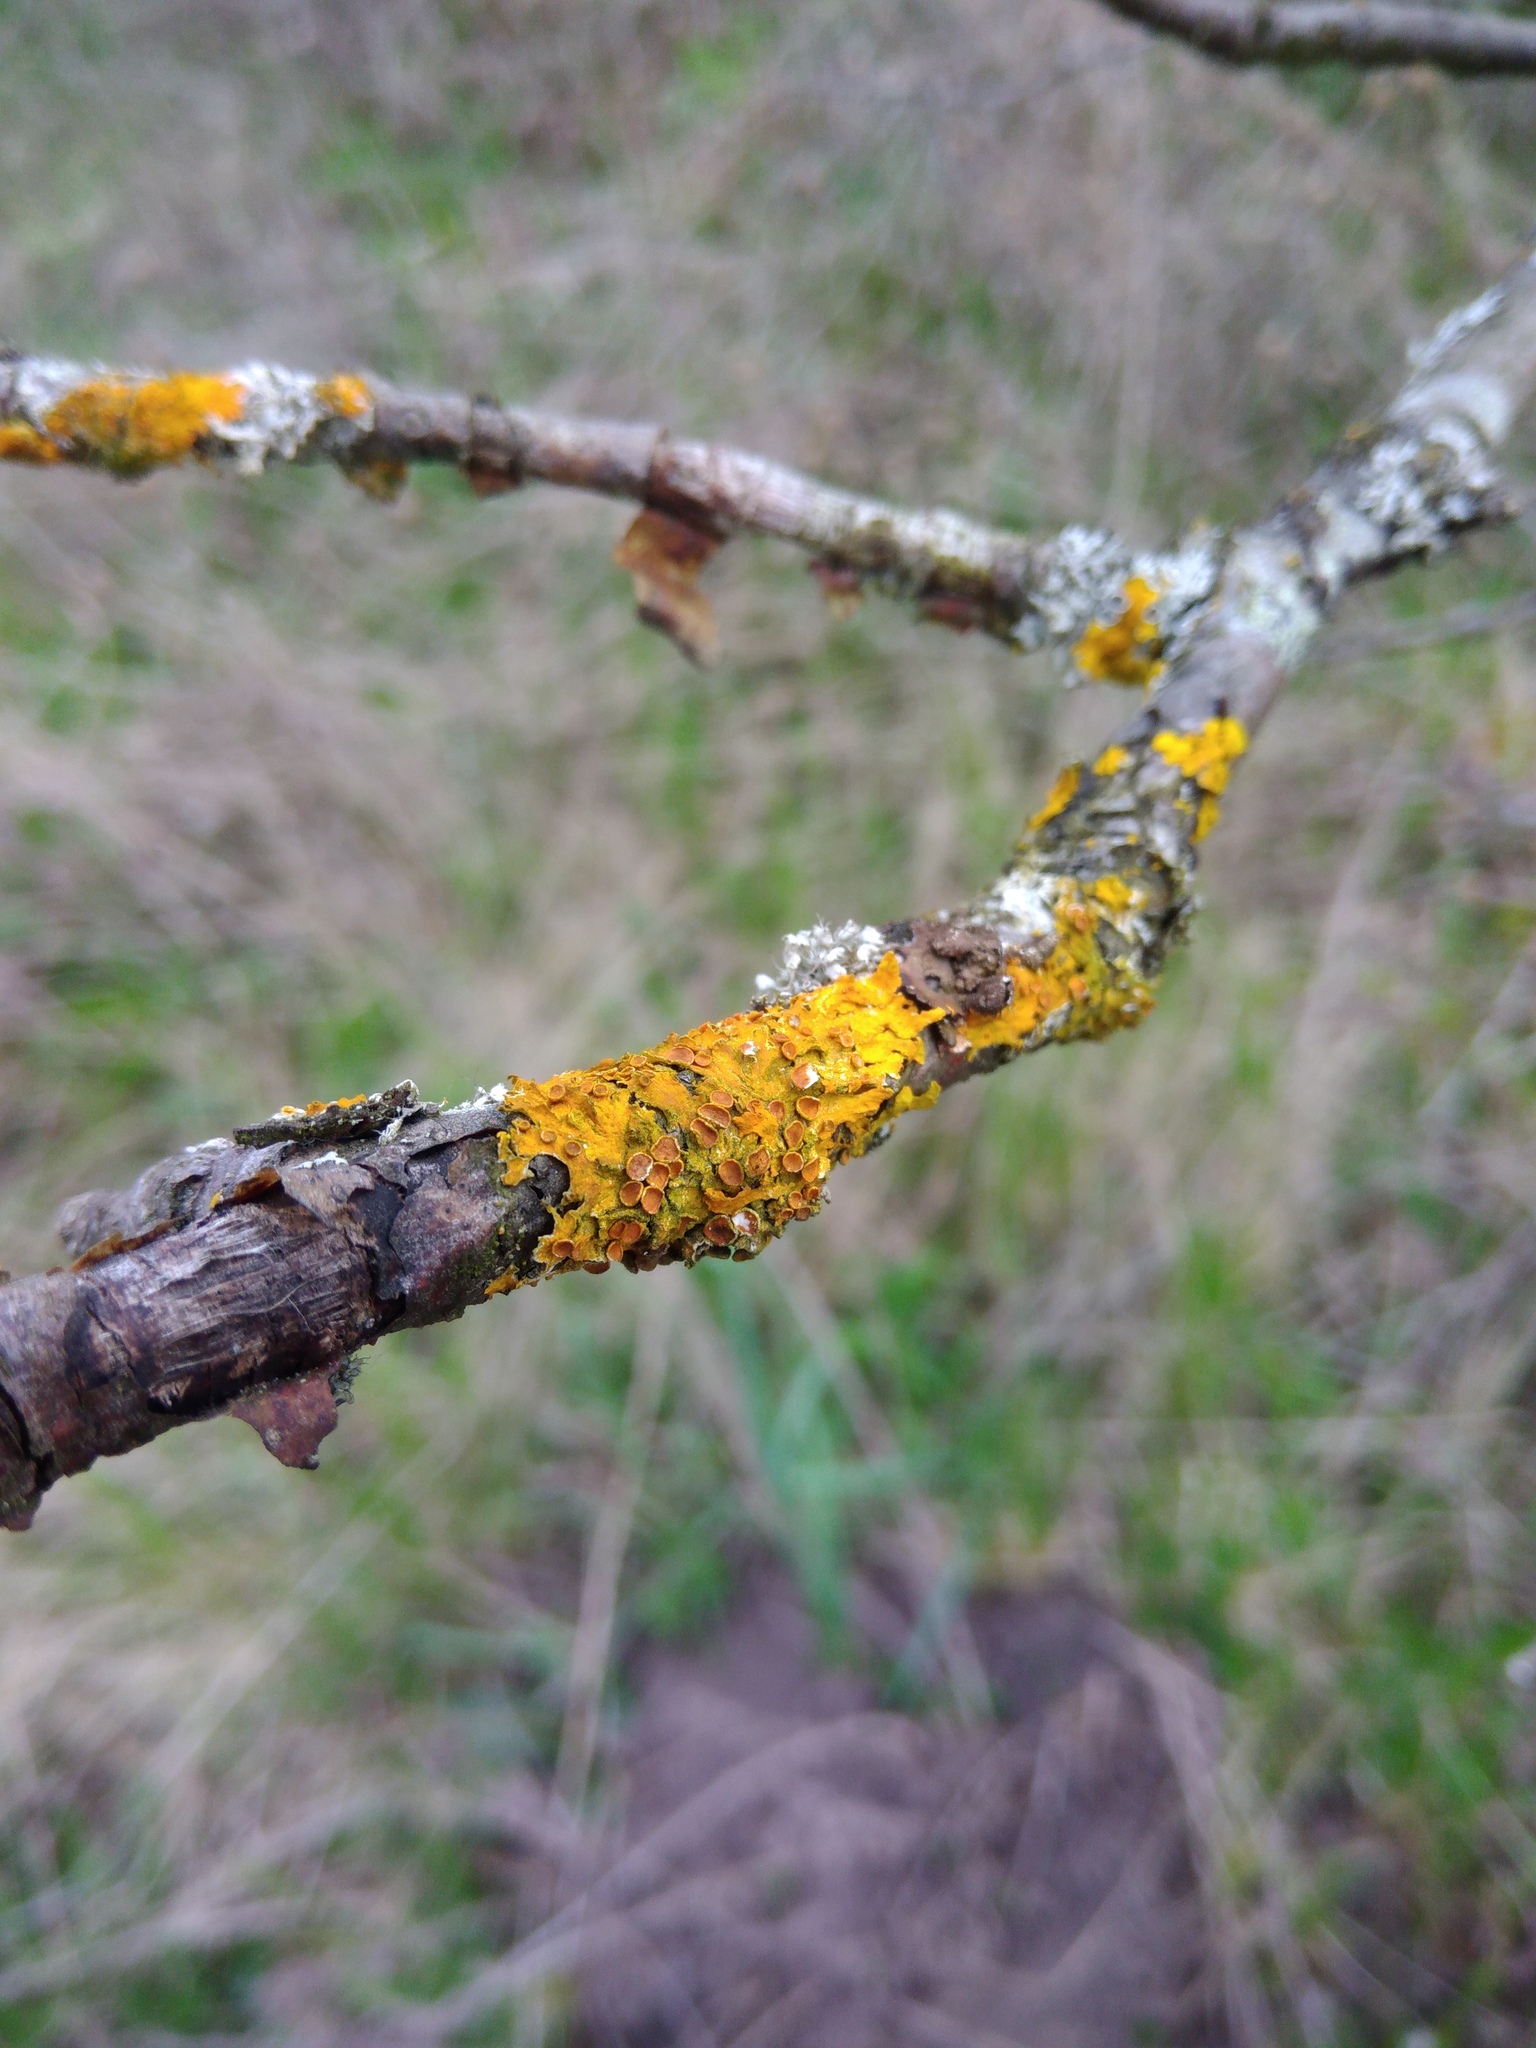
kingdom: Fungi
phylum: Ascomycota
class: Lecanoromycetes
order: Teloschistales
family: Teloschistaceae
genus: Xanthoria
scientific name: Xanthoria parietina
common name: Common orange lichen
